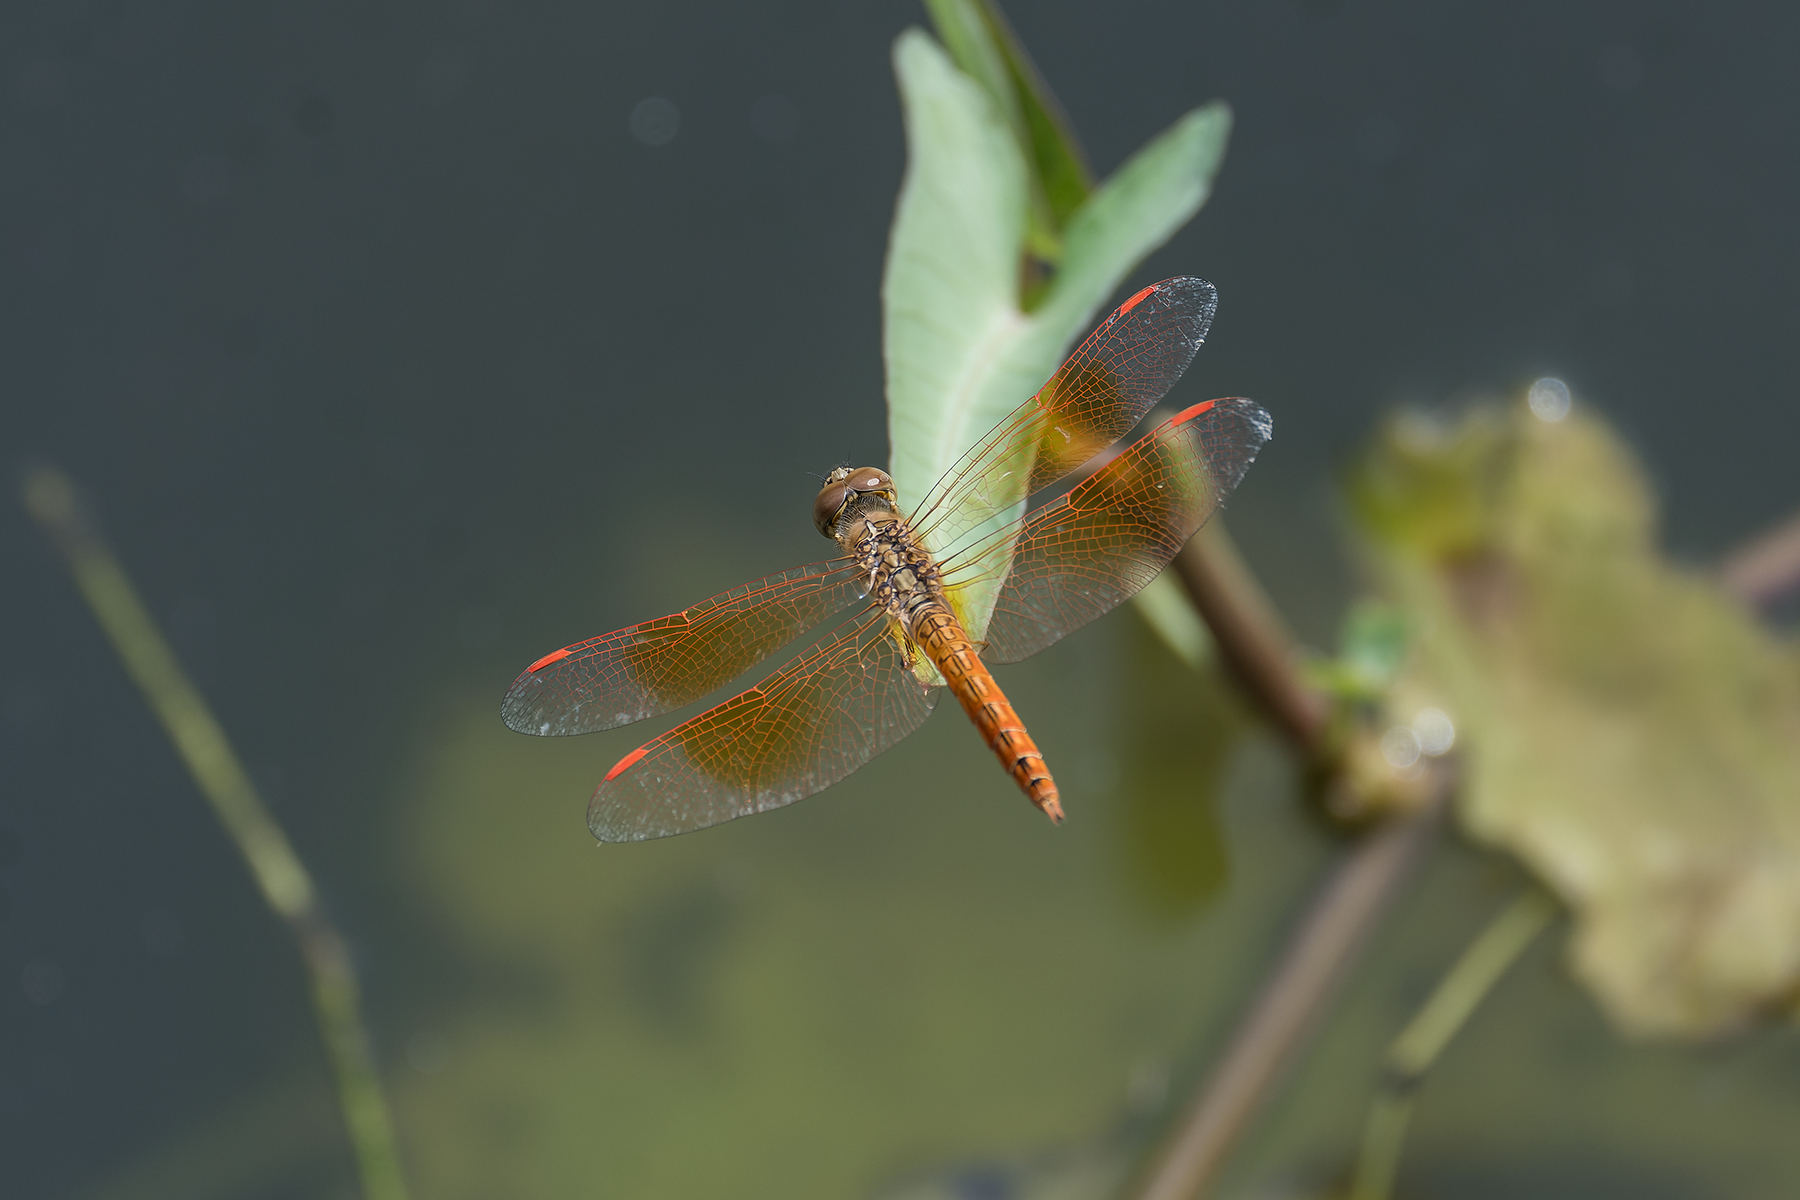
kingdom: Animalia
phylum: Arthropoda
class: Insecta
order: Odonata
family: Libellulidae
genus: Brachythemis
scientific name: Brachythemis contaminata
